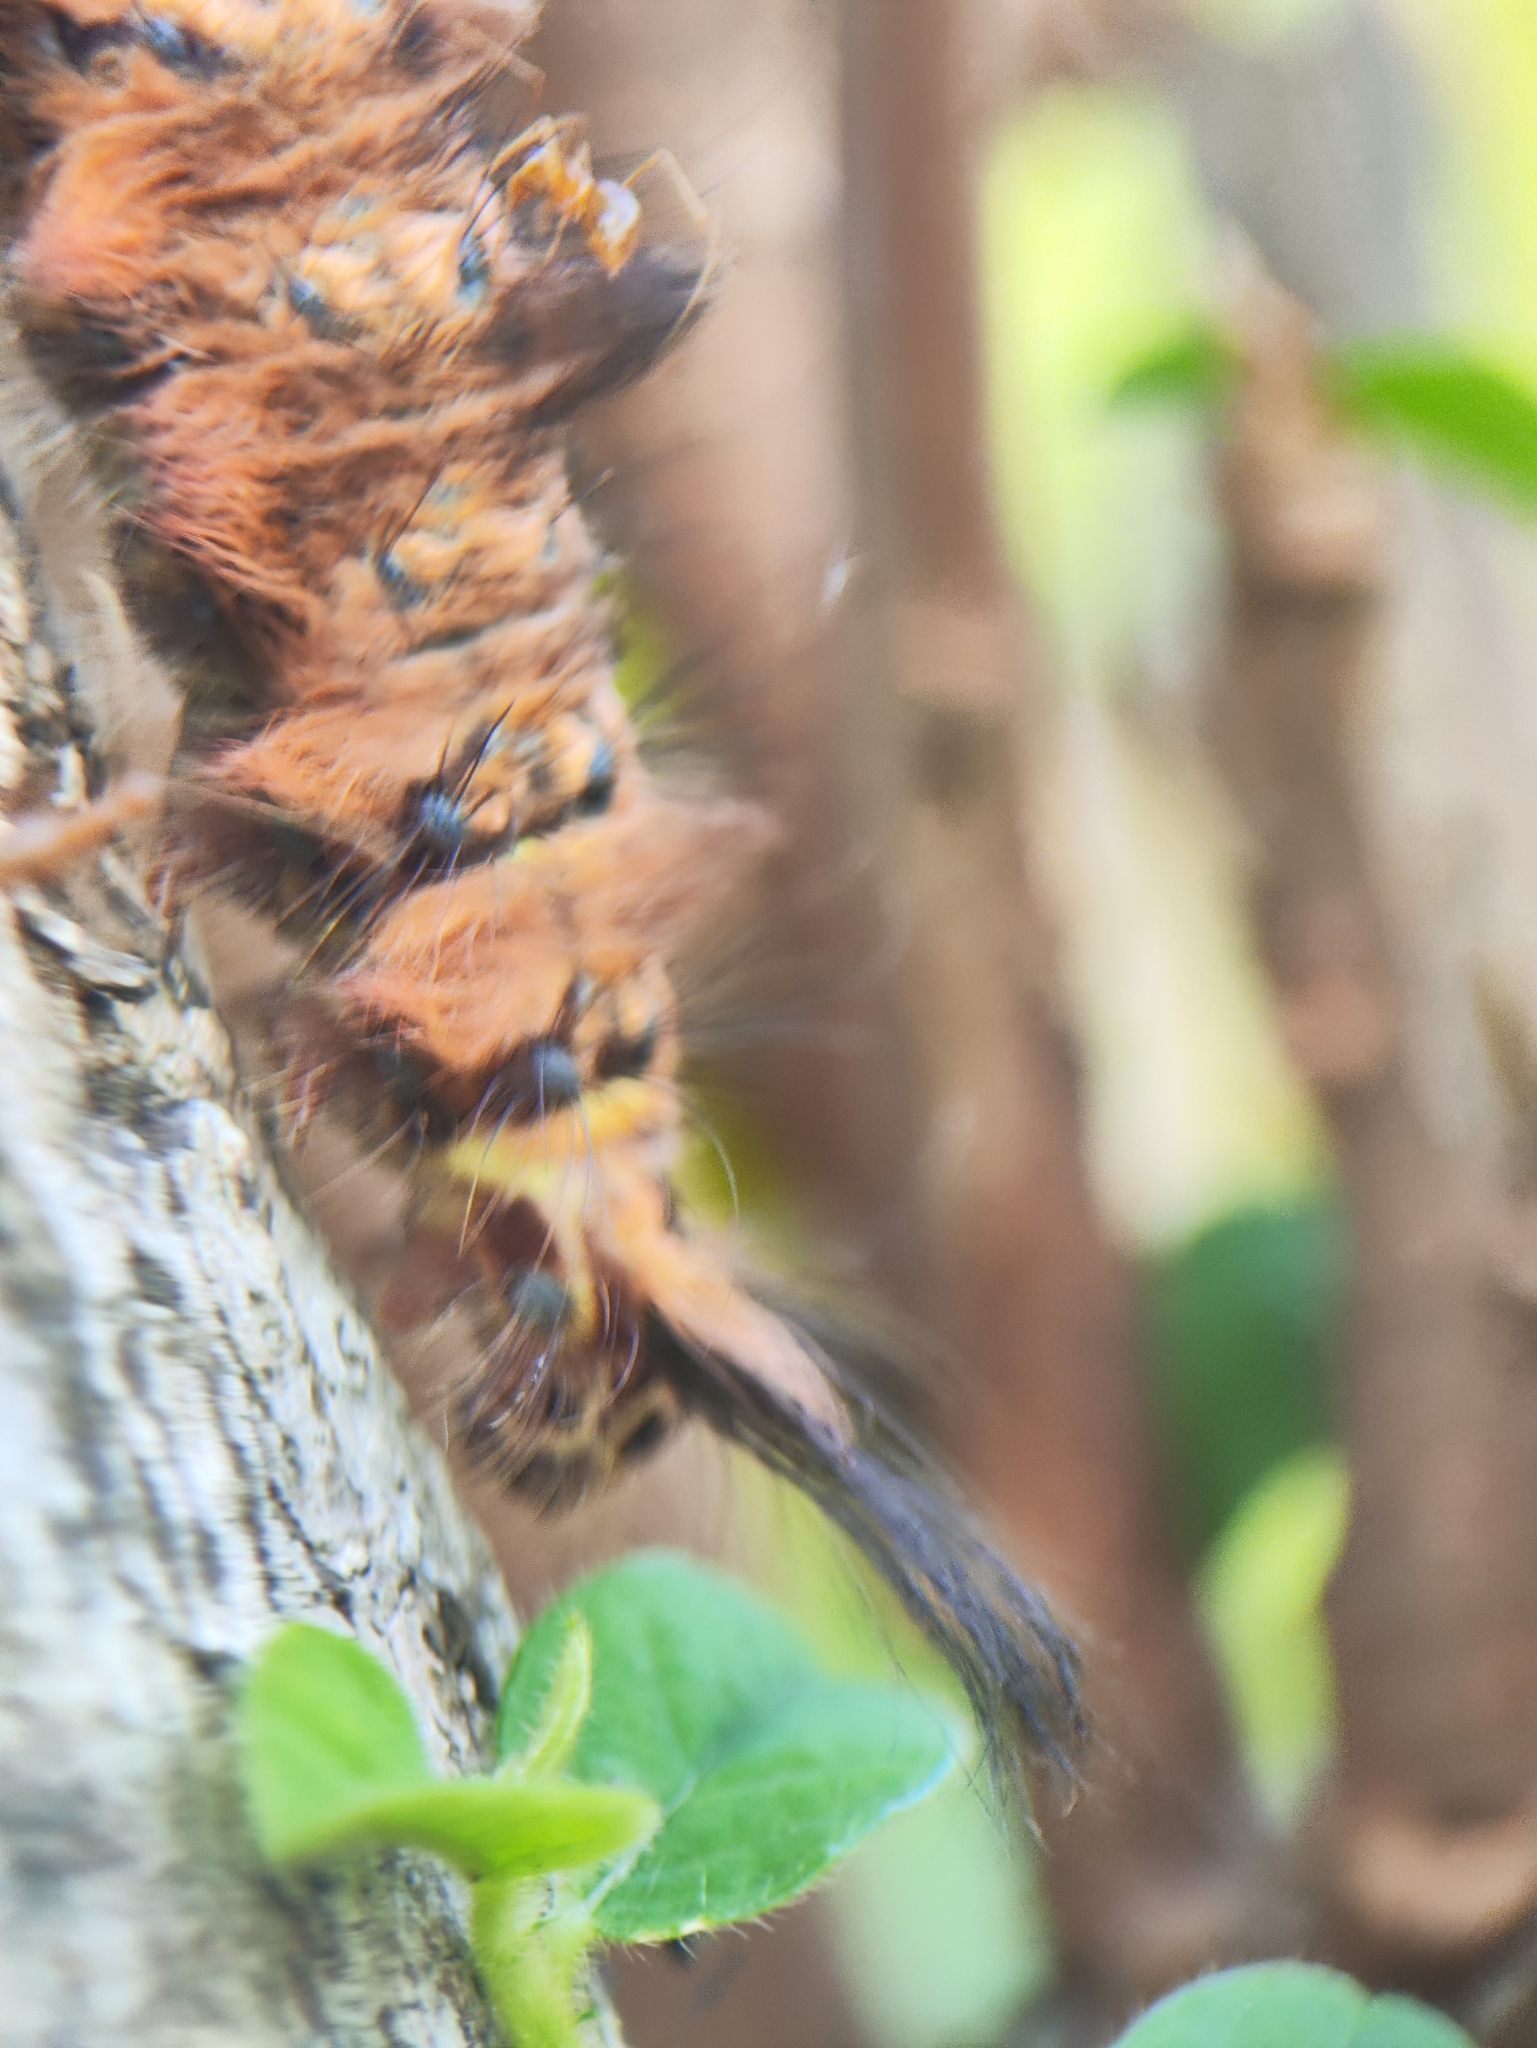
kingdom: Animalia
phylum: Arthropoda
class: Insecta
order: Lepidoptera
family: Lasiocampidae
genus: Trabala
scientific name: Trabala vishnou
